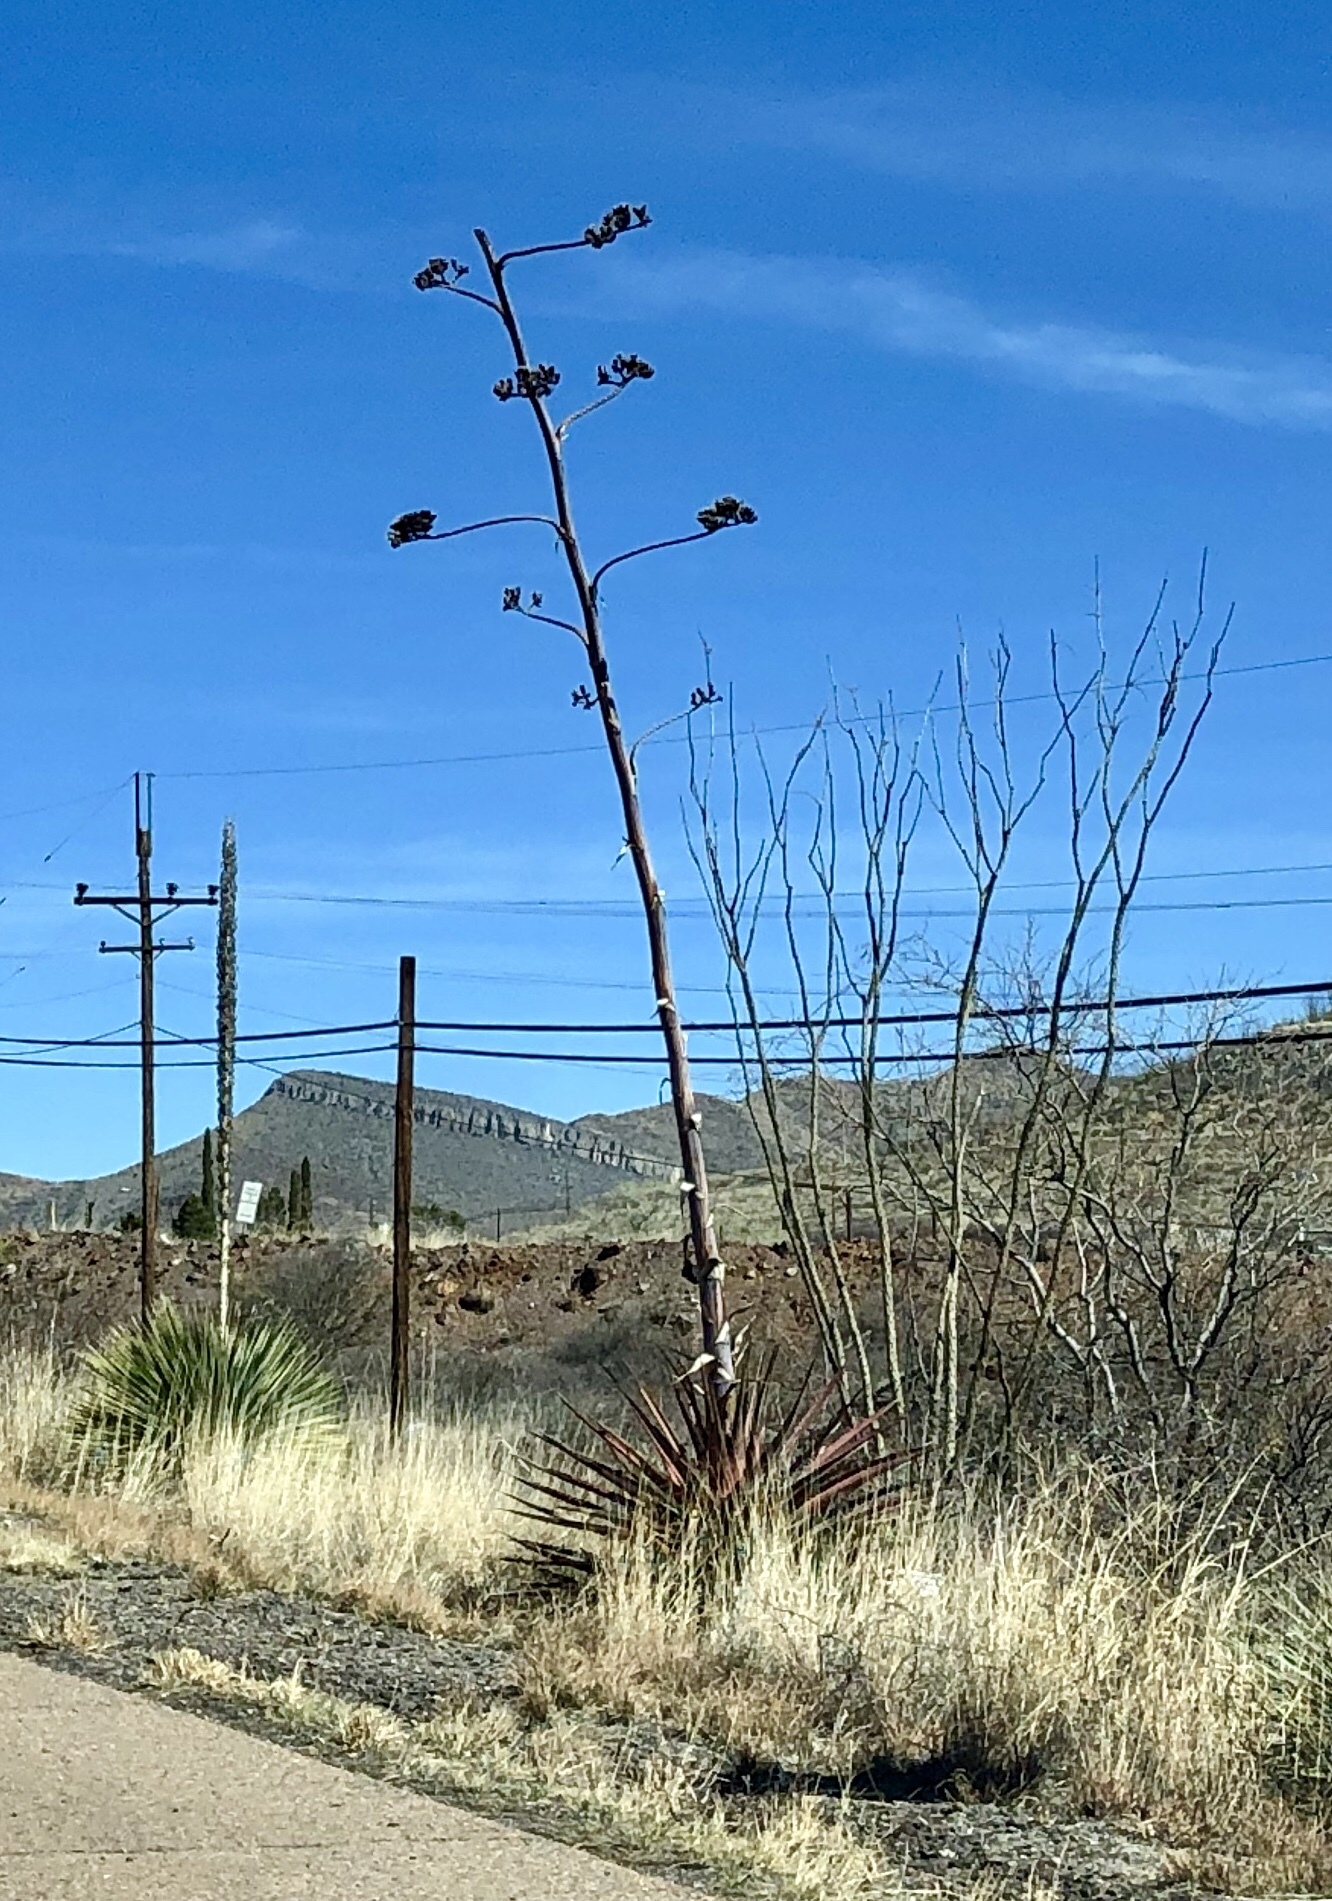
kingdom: Plantae
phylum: Tracheophyta
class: Liliopsida
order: Asparagales
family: Asparagaceae
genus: Agave
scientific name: Agave palmeri
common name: Palmer agave
